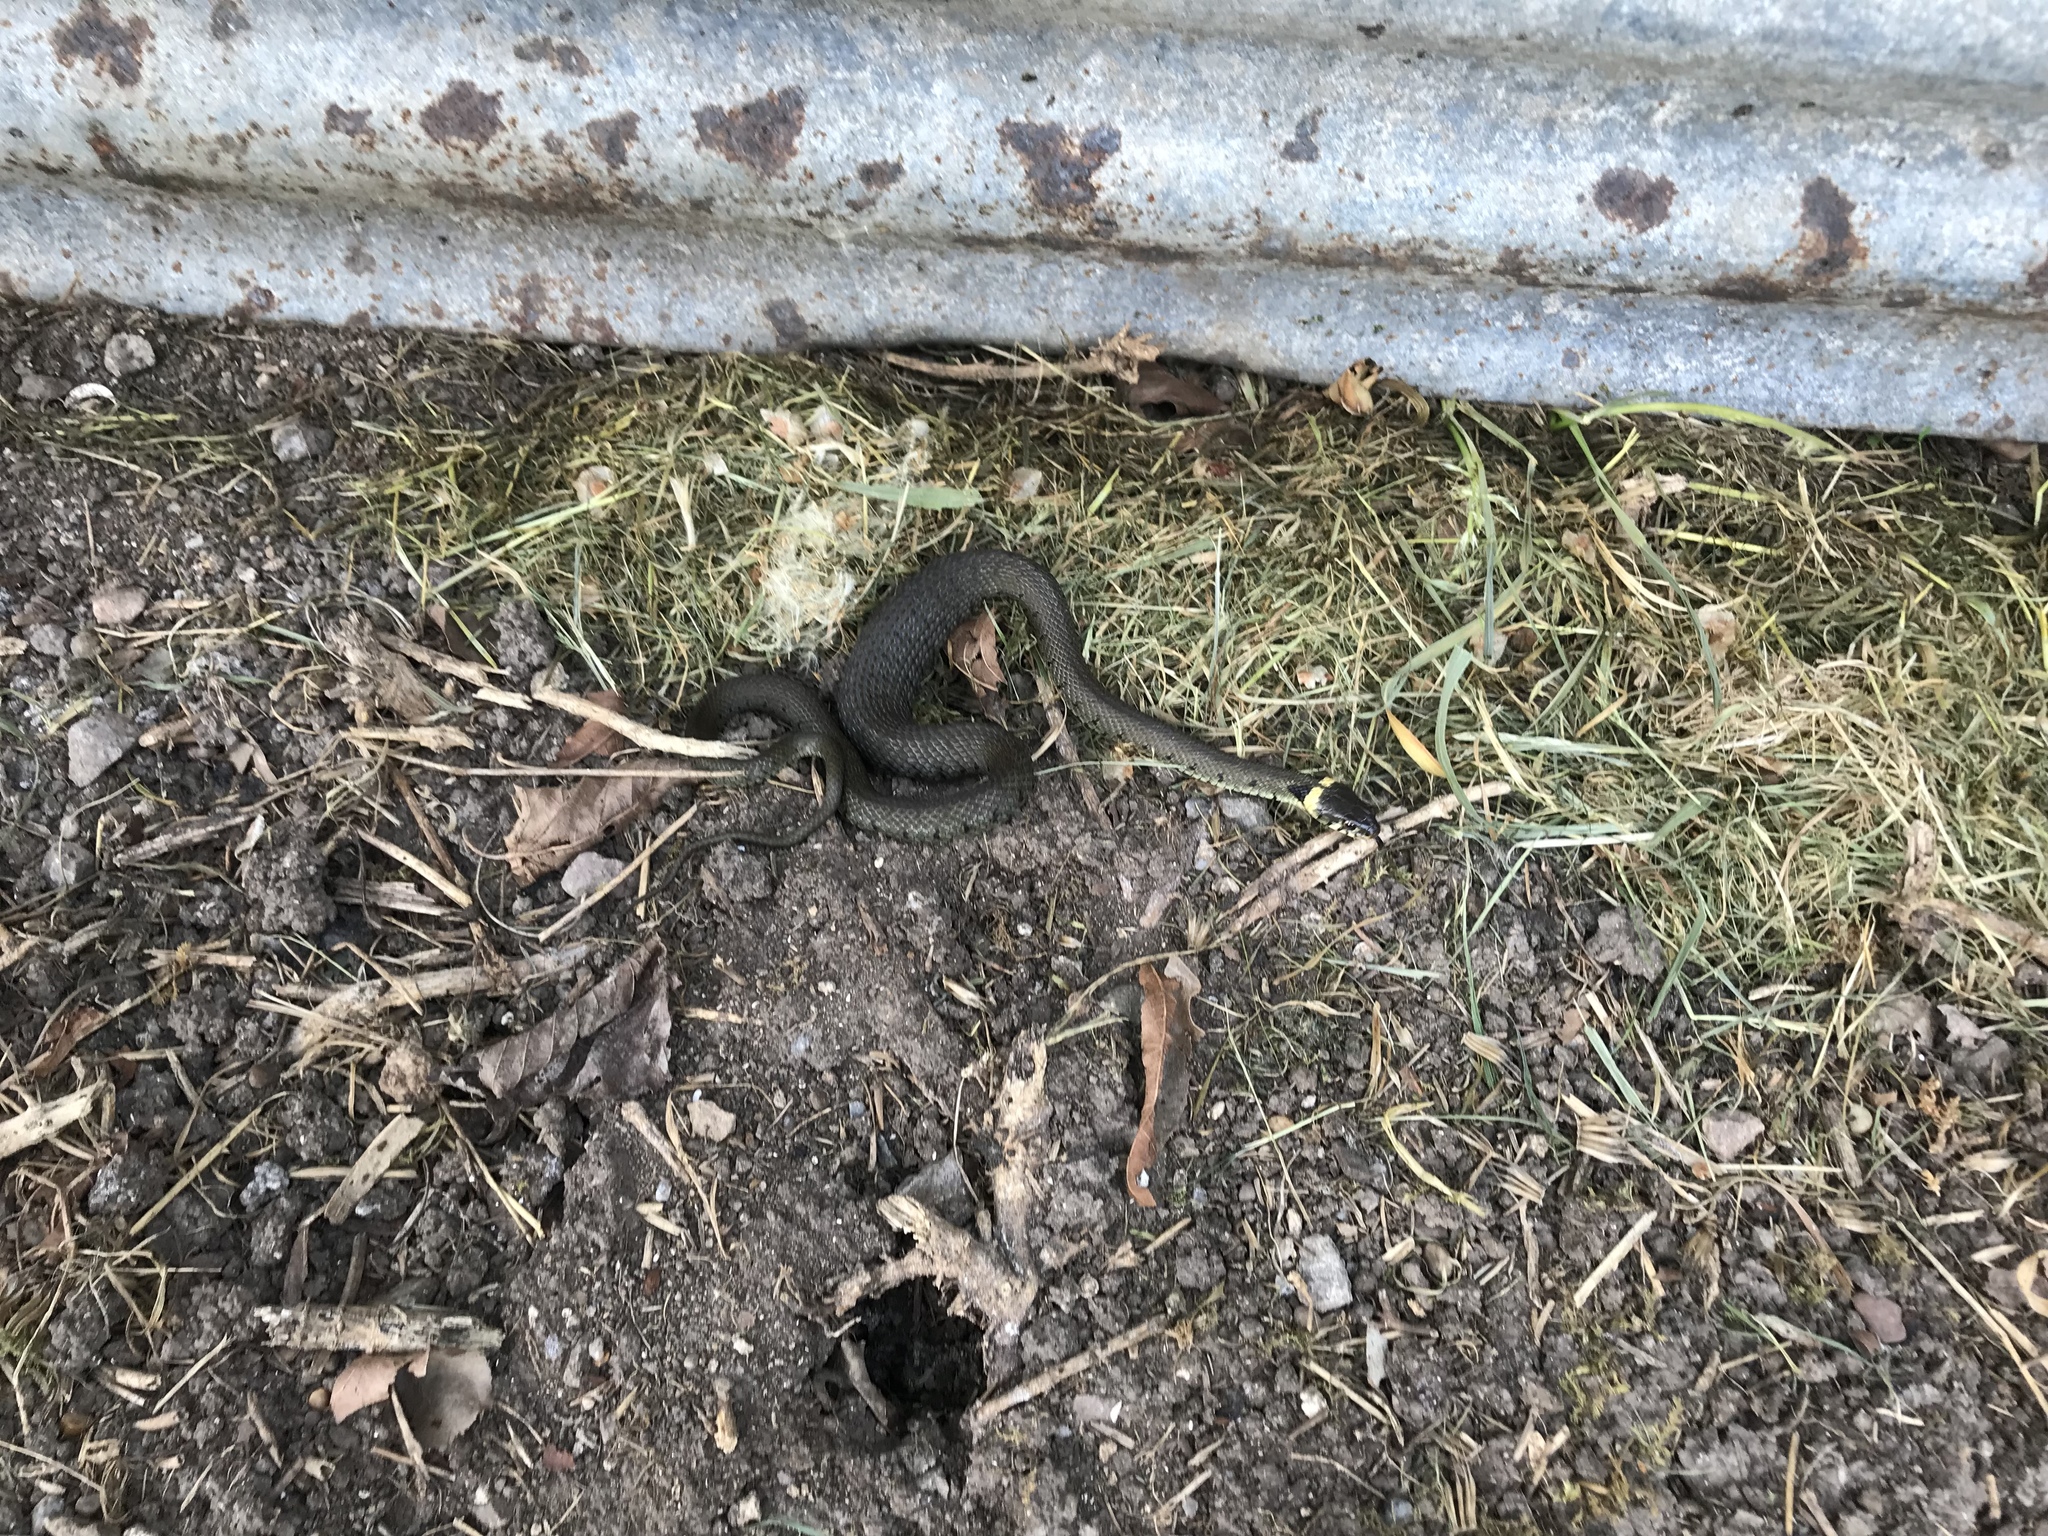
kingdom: Animalia
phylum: Chordata
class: Squamata
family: Colubridae
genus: Natrix
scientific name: Natrix helvetica
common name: Banded grass snake
